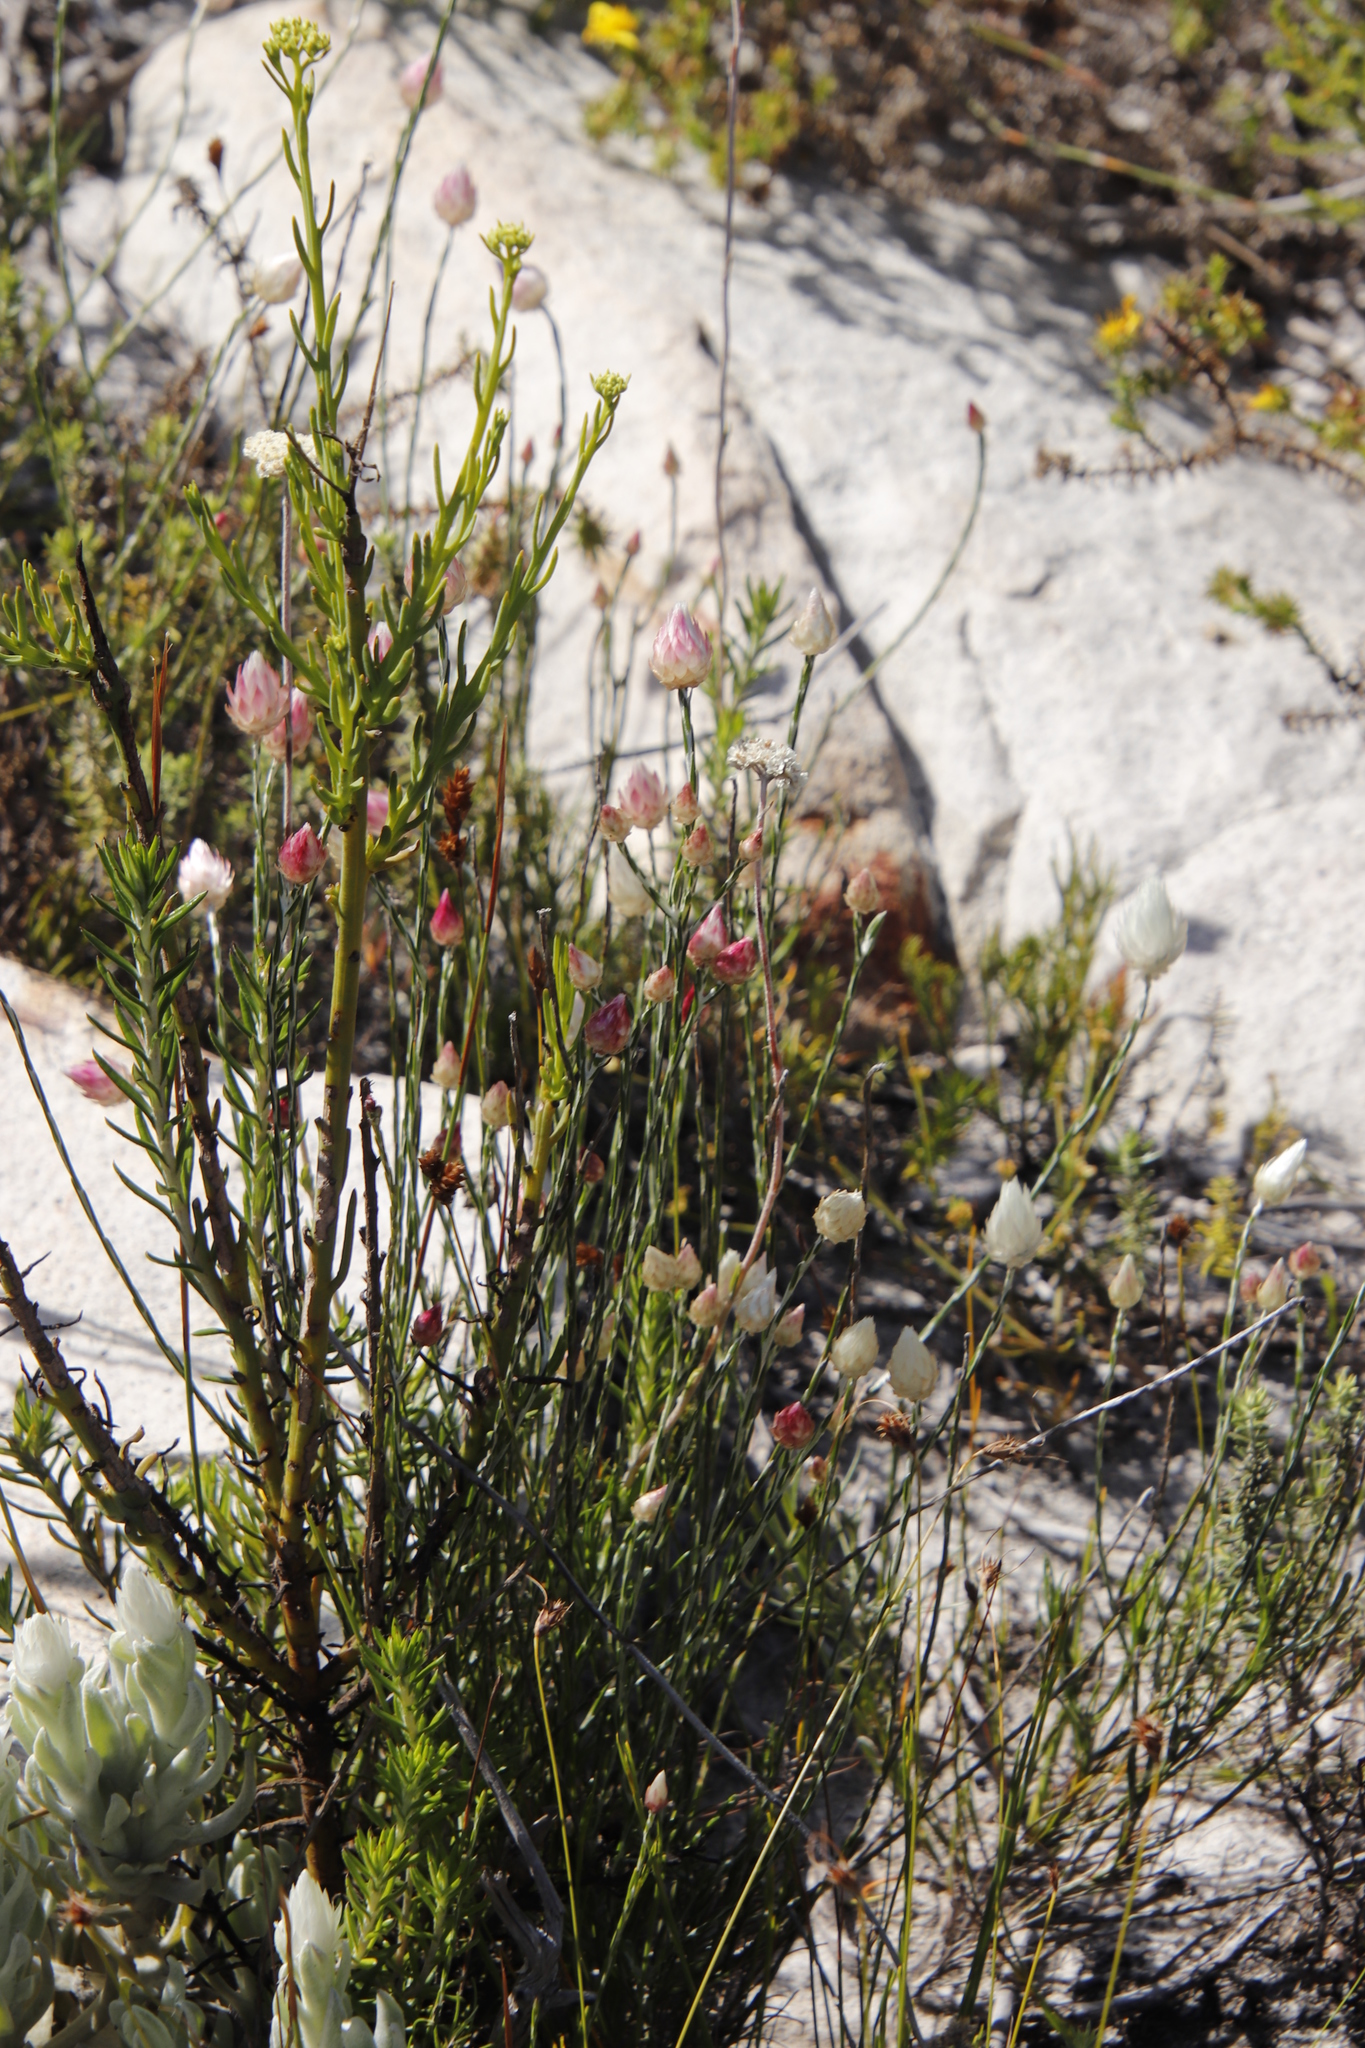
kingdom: Plantae
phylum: Tracheophyta
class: Magnoliopsida
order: Asterales
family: Asteraceae
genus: Edmondia
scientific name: Edmondia sesamoides
